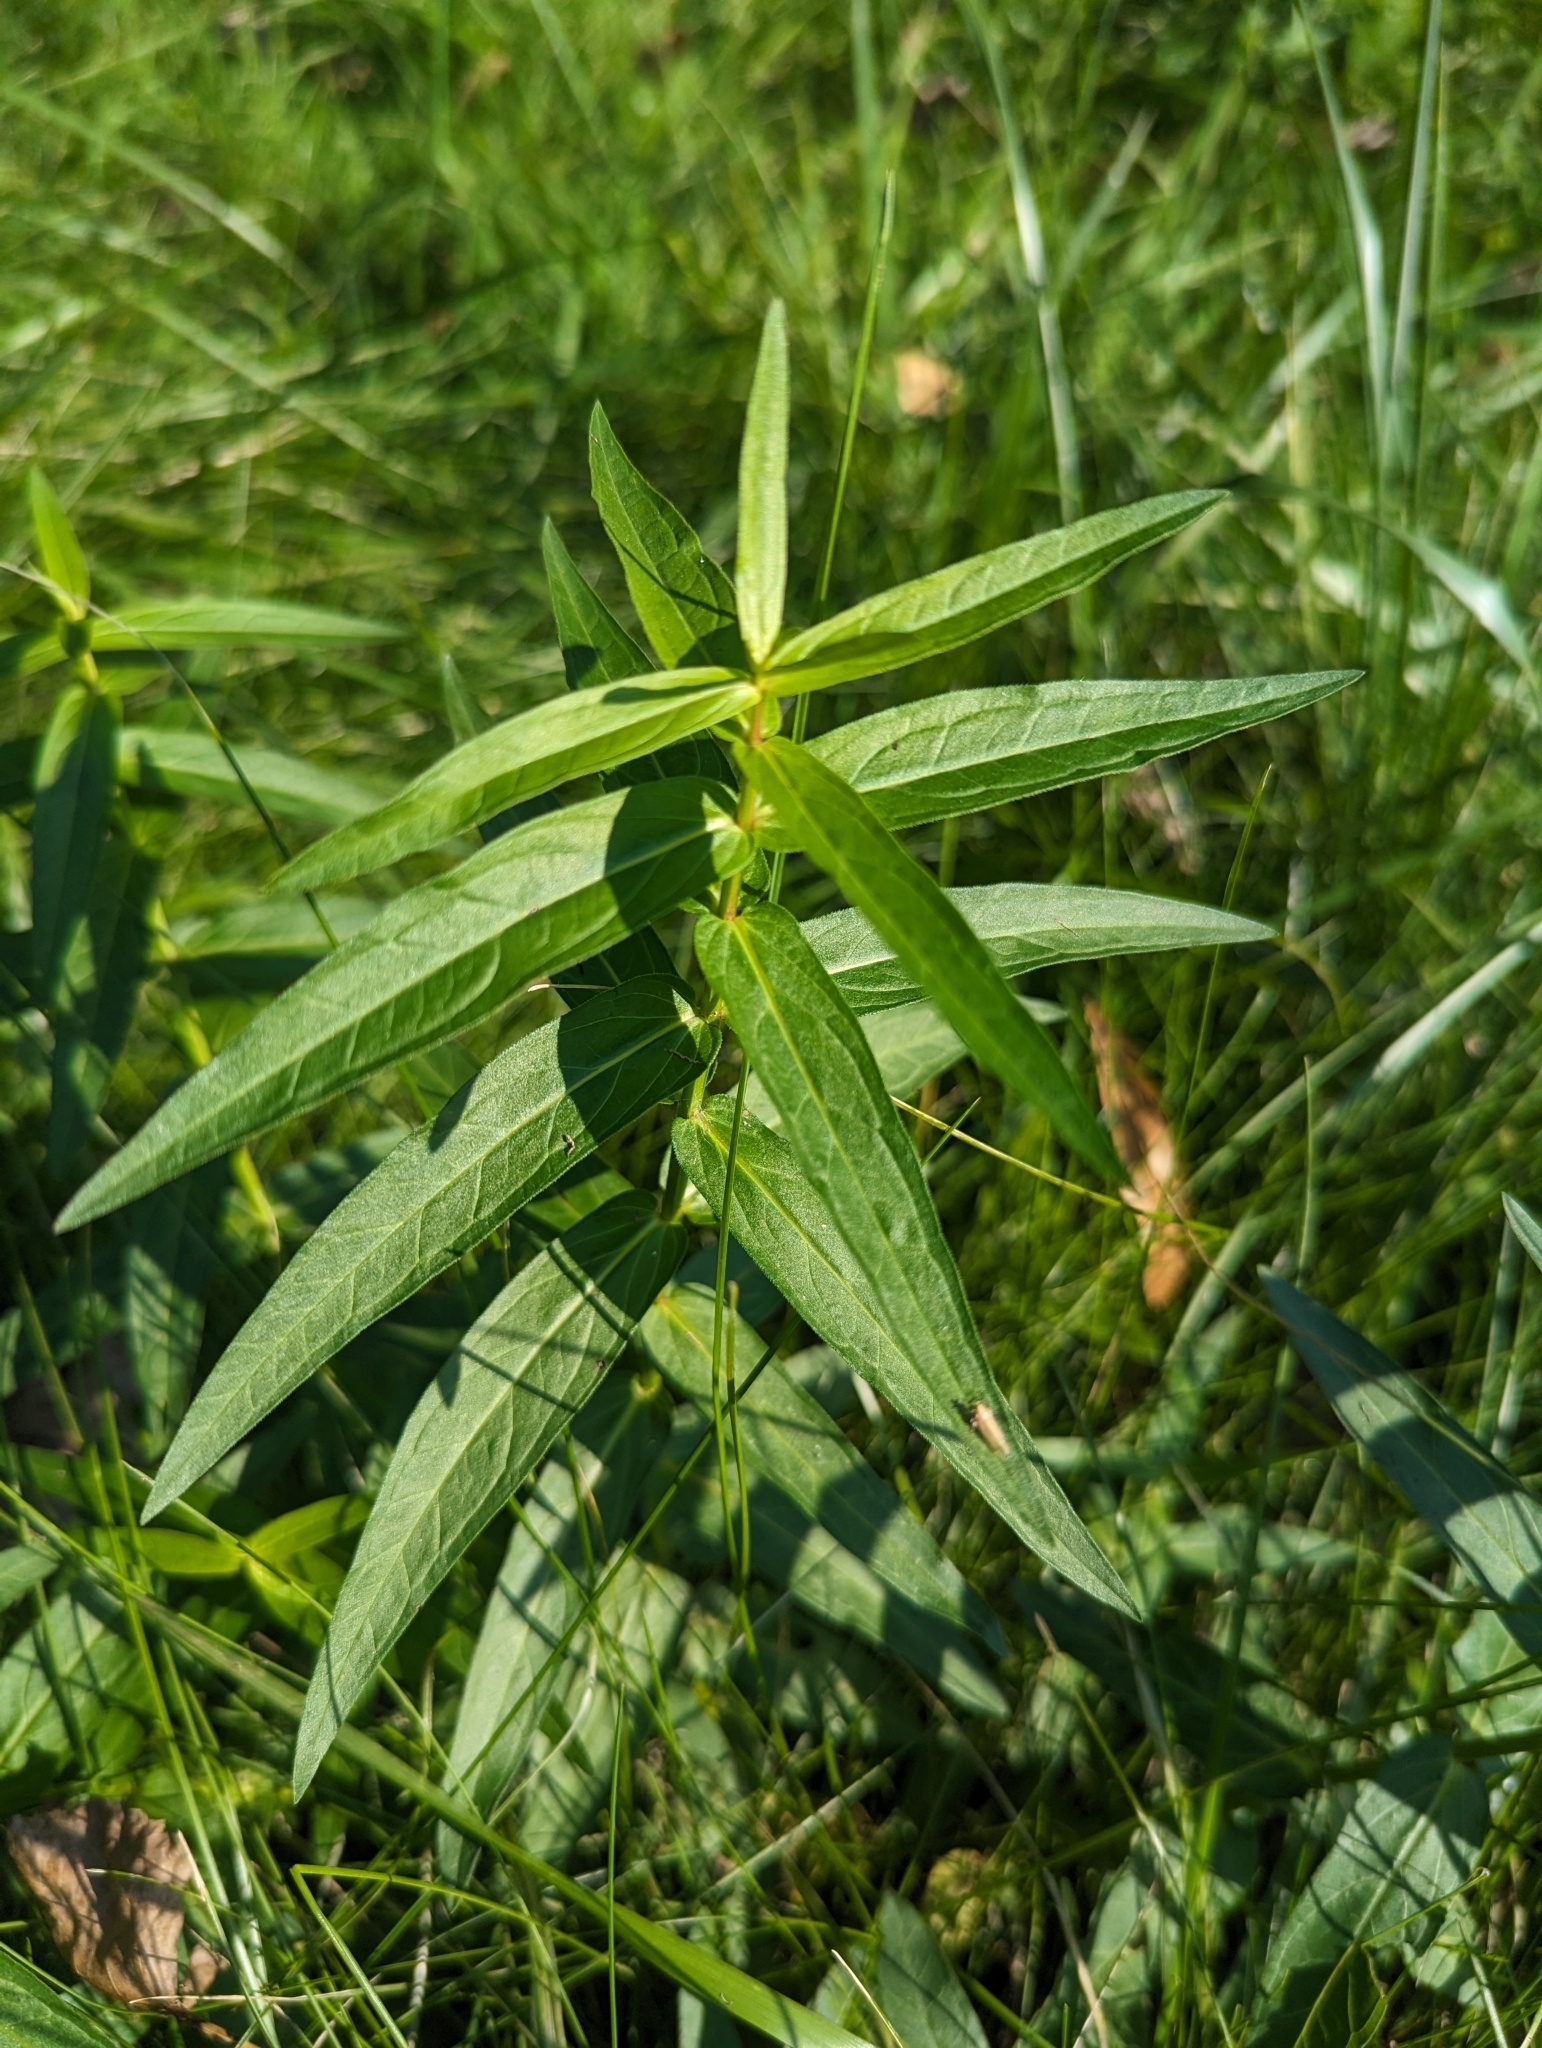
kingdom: Plantae
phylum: Tracheophyta
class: Magnoliopsida
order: Gentianales
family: Apocynaceae
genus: Asclepias
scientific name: Asclepias incarnata
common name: Swamp milkweed
